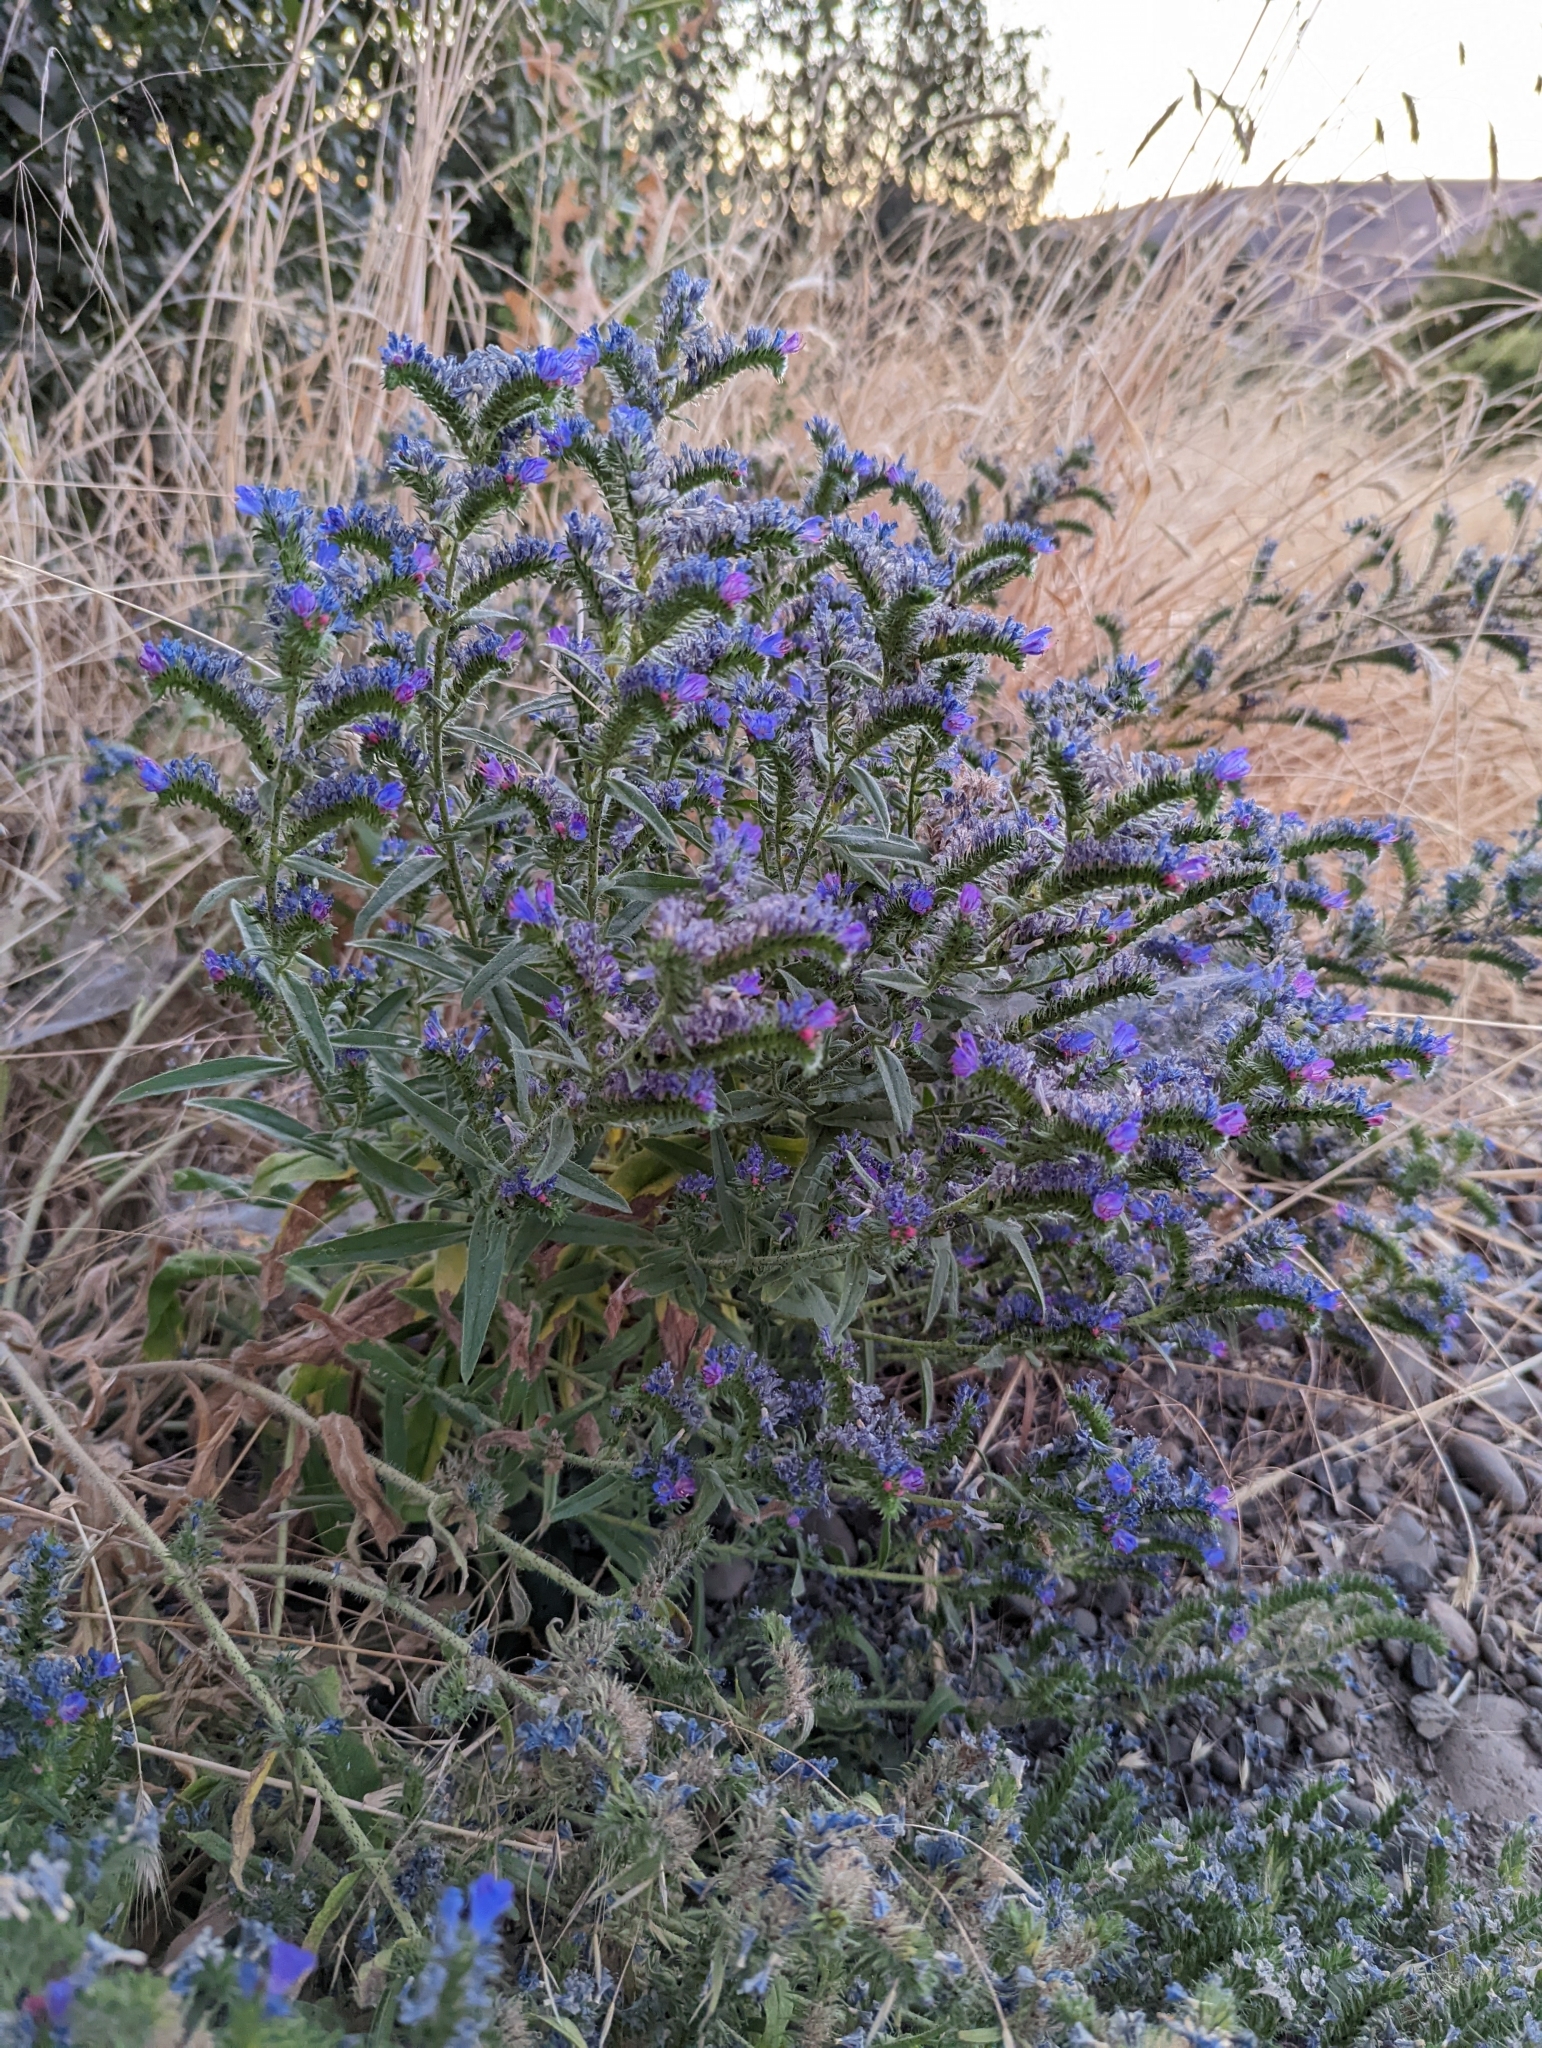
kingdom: Plantae
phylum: Tracheophyta
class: Magnoliopsida
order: Boraginales
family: Boraginaceae
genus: Echium
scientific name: Echium vulgare
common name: Common viper's bugloss
